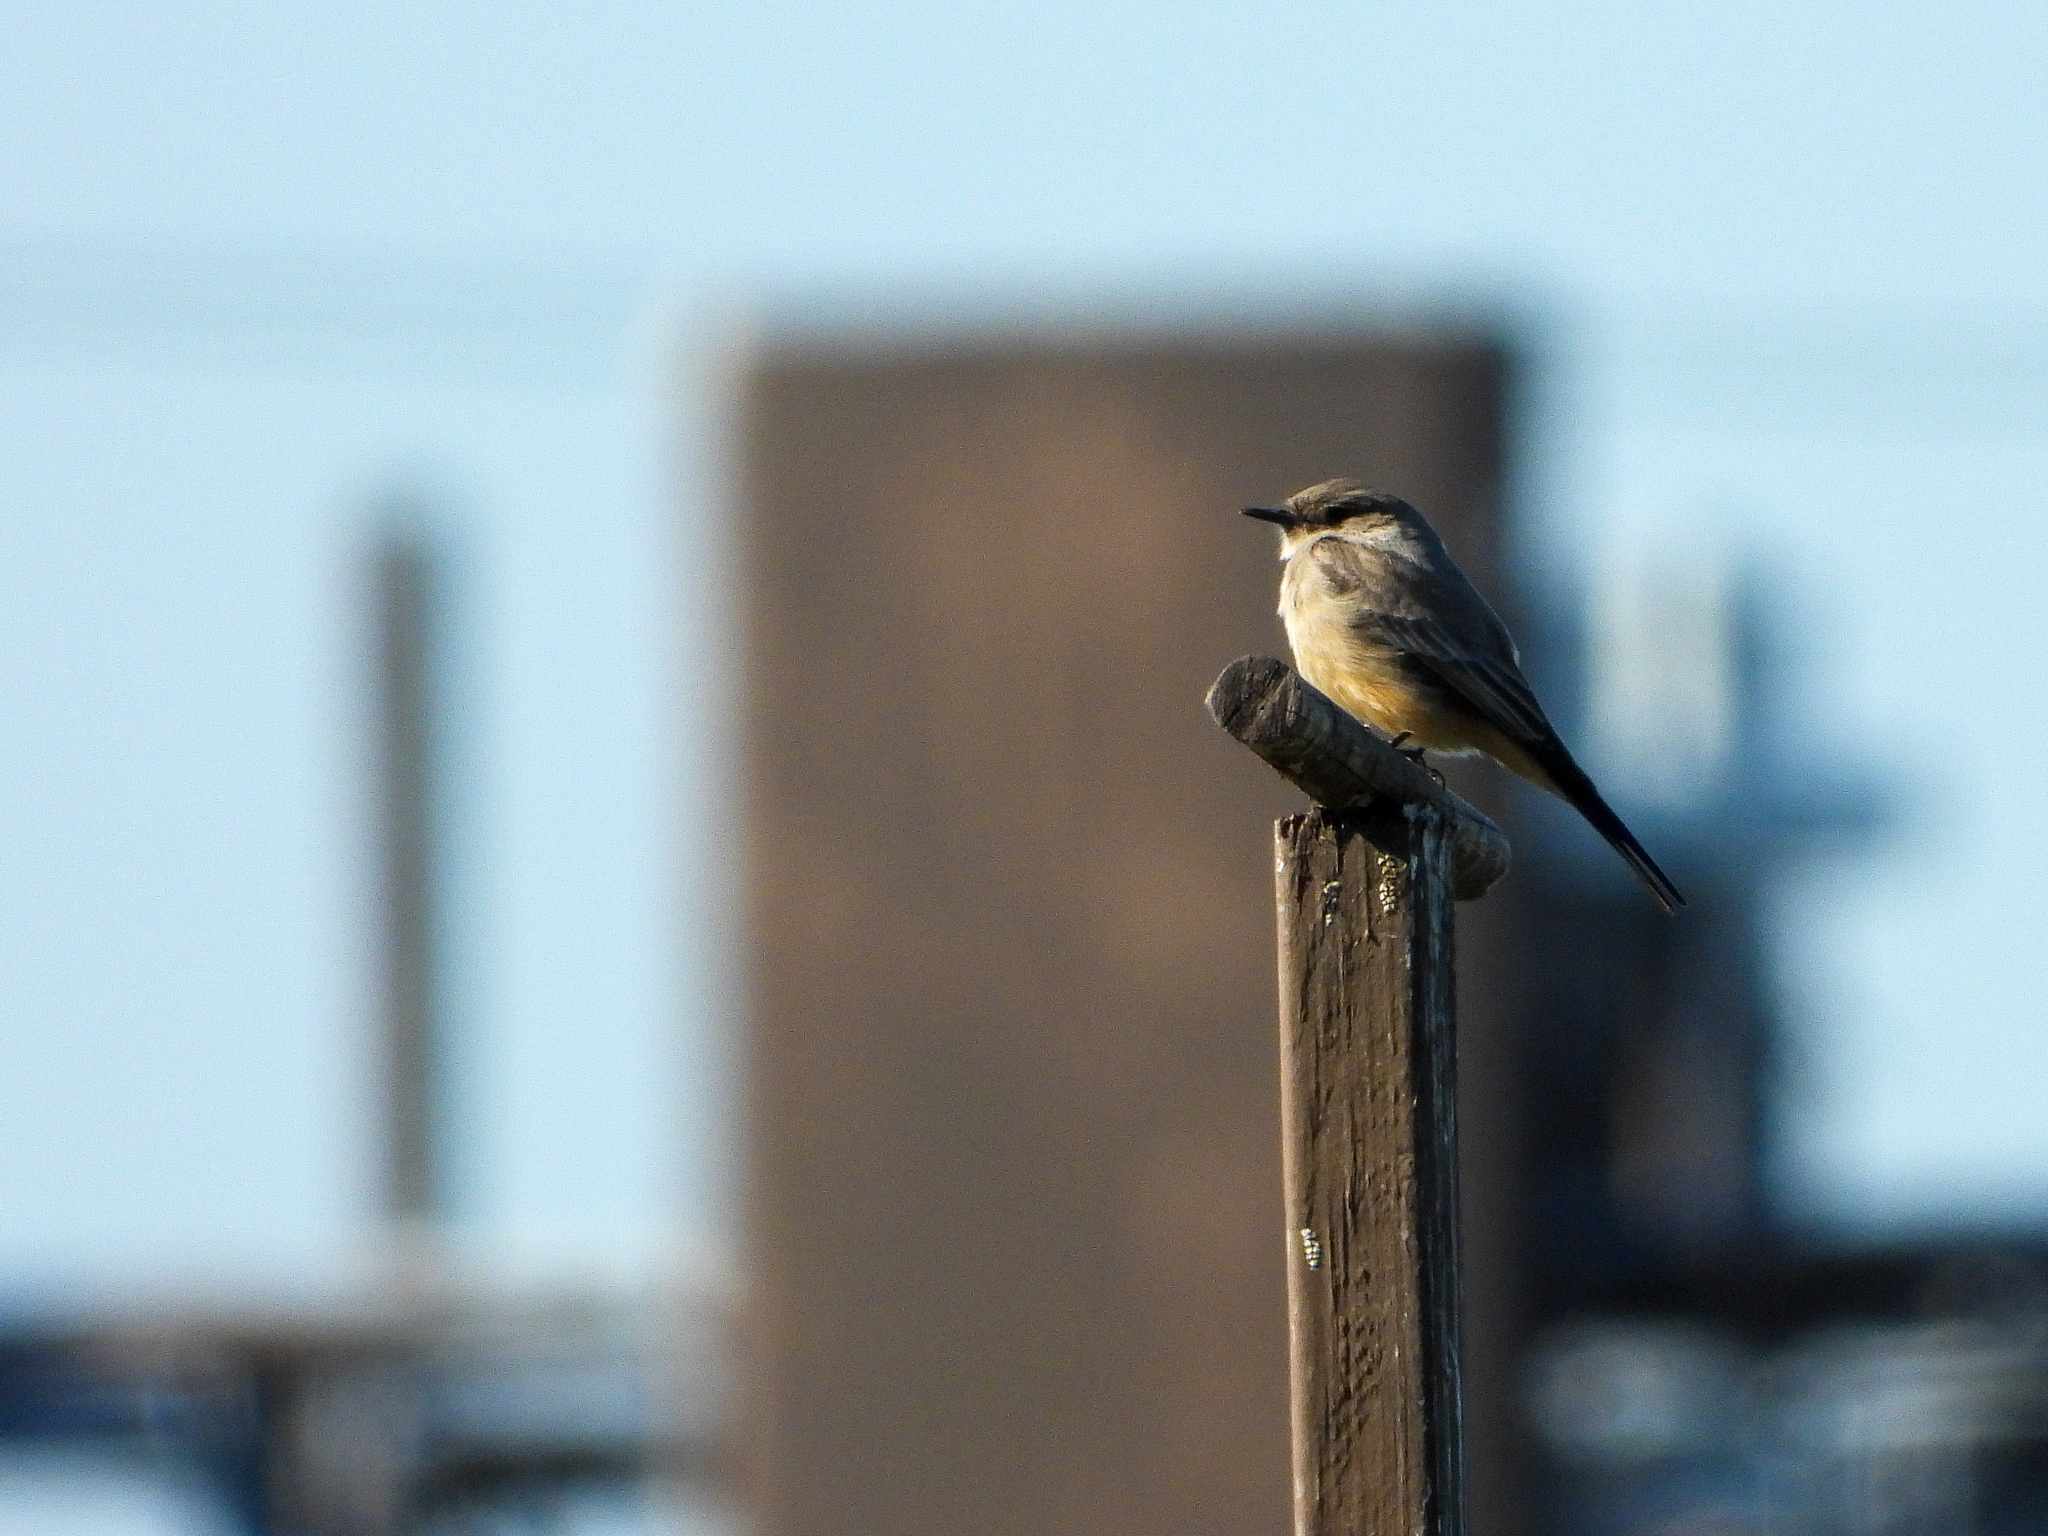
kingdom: Animalia
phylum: Chordata
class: Aves
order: Passeriformes
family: Tyrannidae
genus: Sayornis
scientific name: Sayornis saya
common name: Say's phoebe
